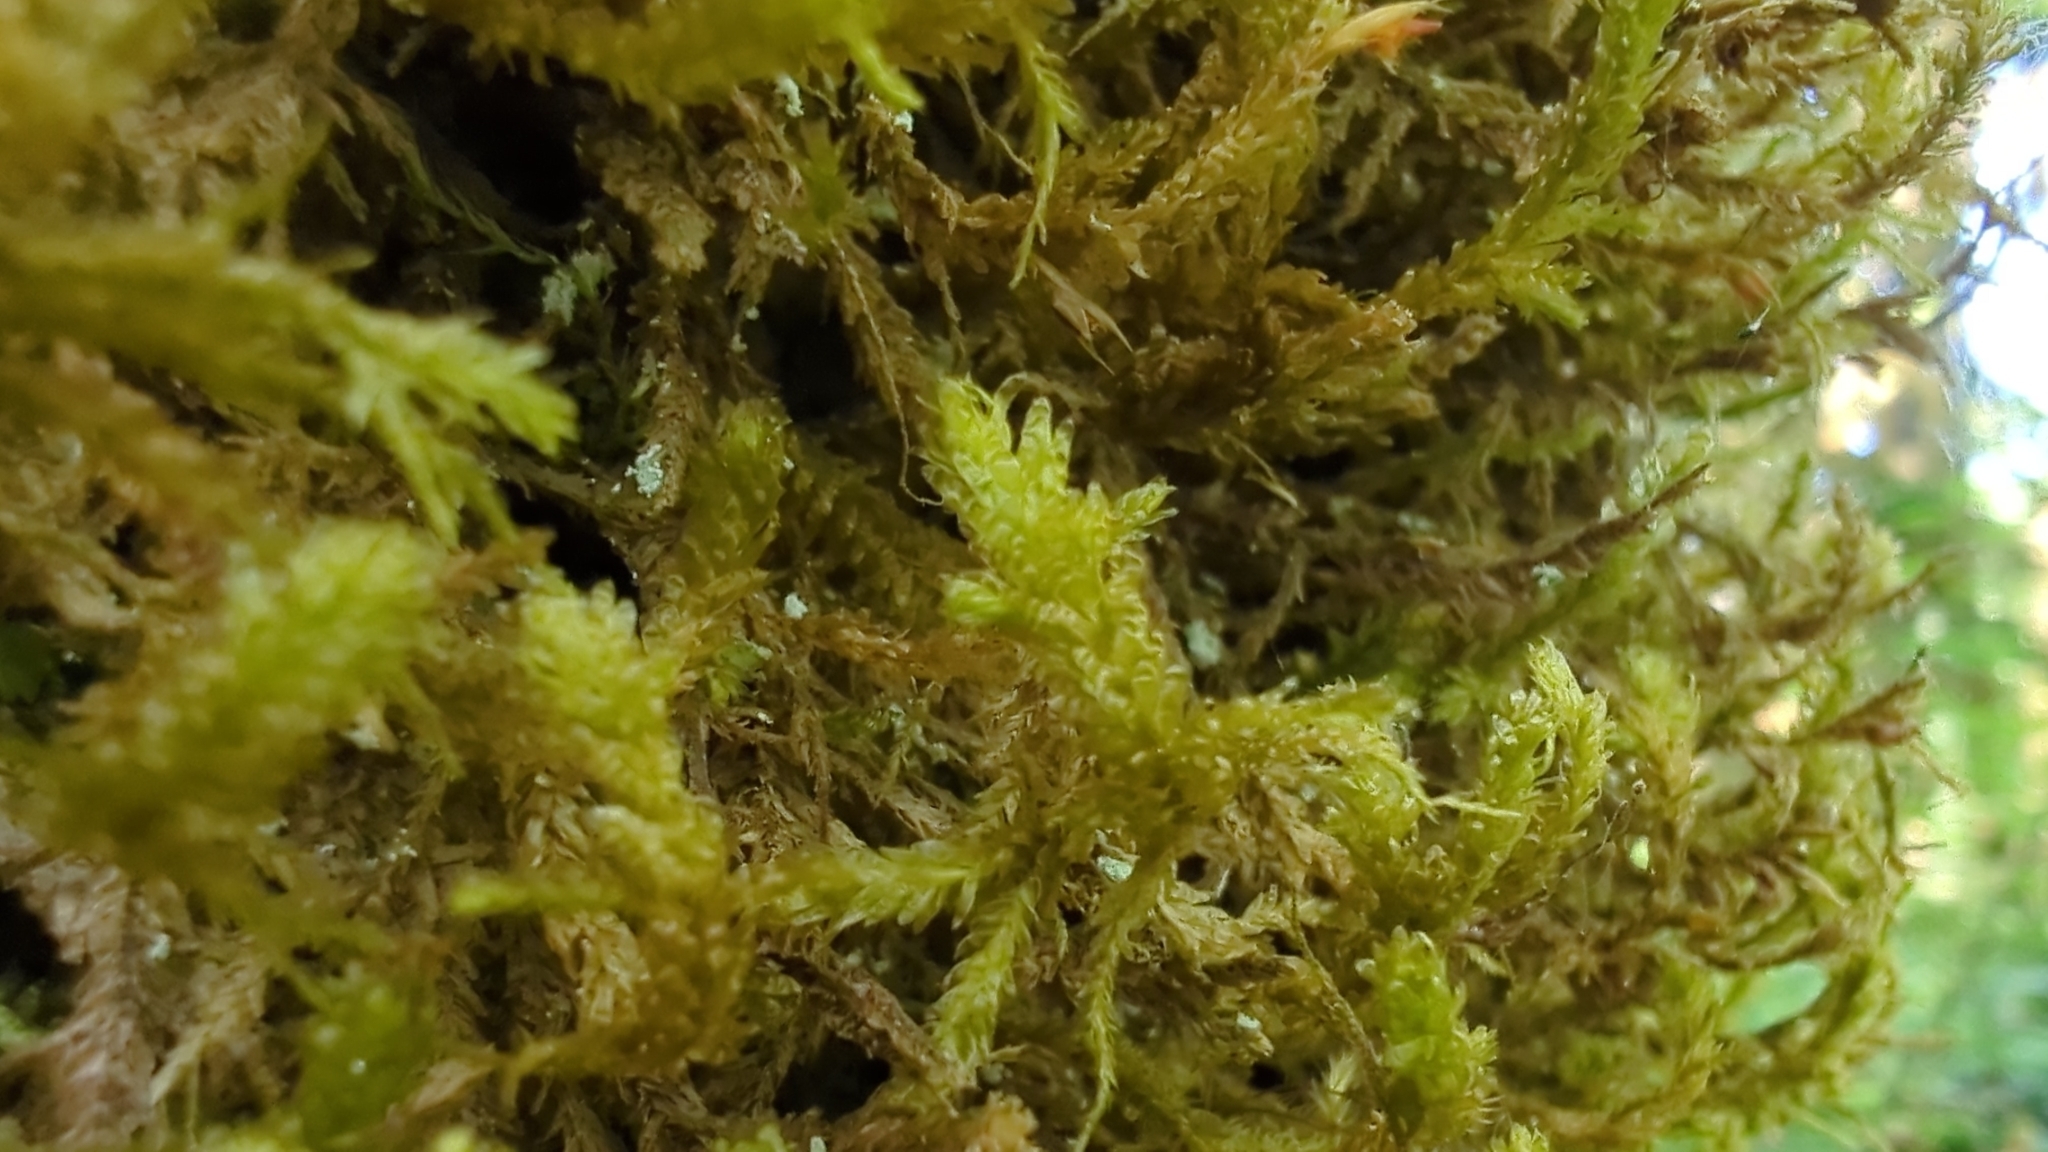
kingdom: Plantae
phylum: Bryophyta
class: Bryopsida
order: Hypnales
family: Neckeraceae
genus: Metaneckera
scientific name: Metaneckera menziesii
